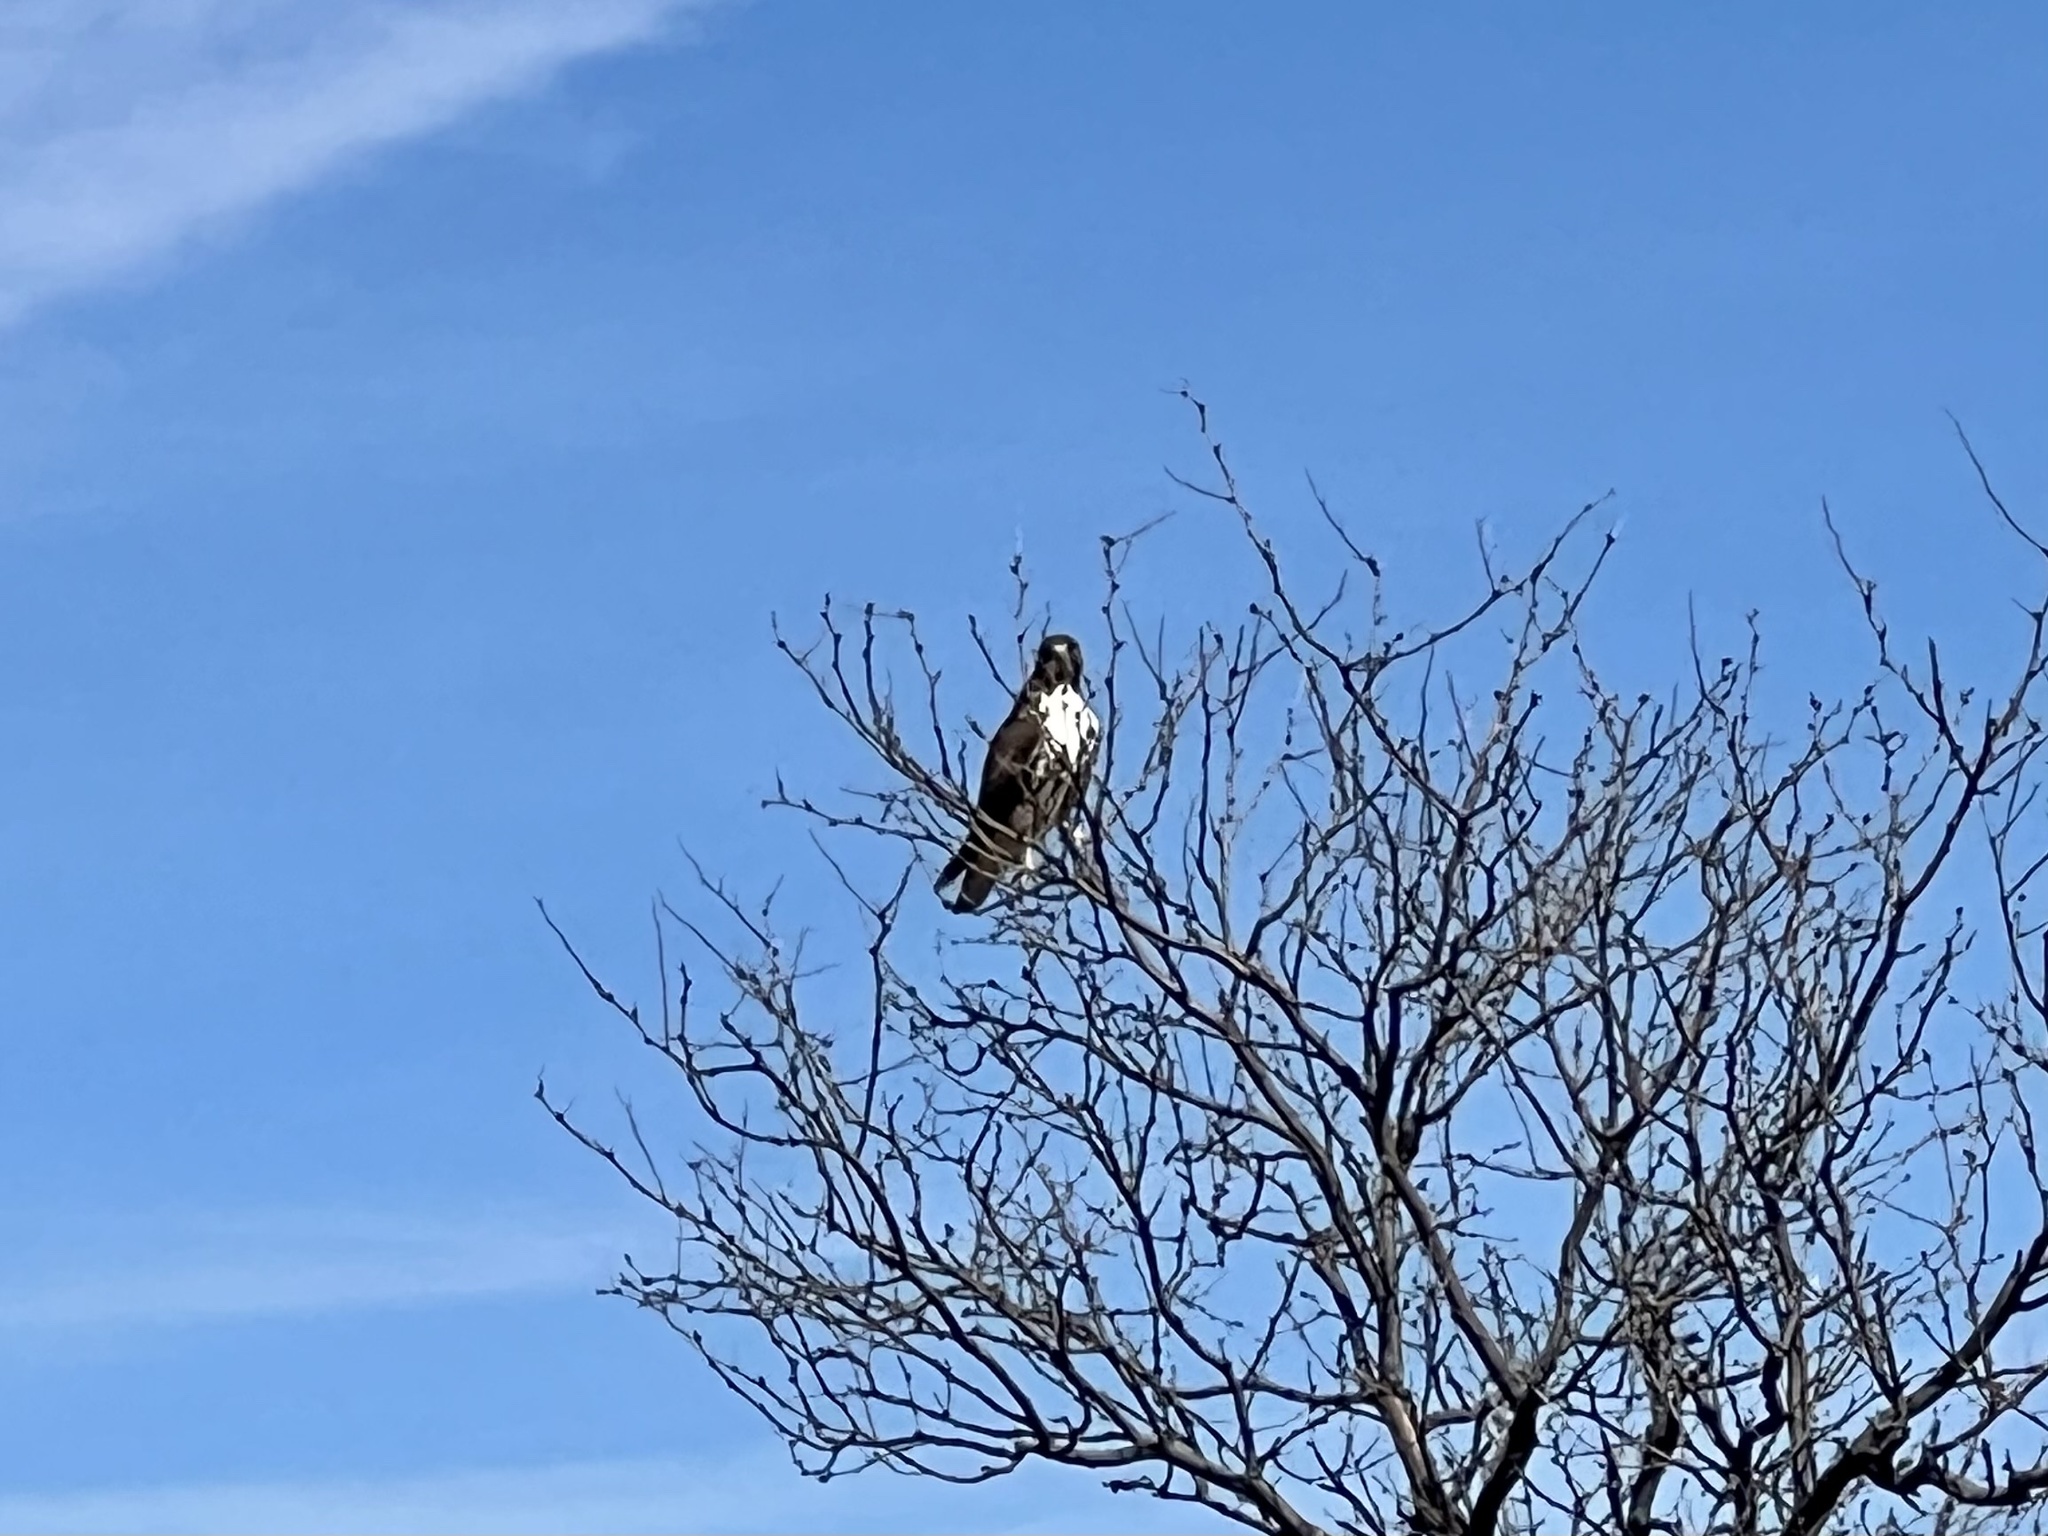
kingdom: Animalia
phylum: Chordata
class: Aves
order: Accipitriformes
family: Accipitridae
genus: Buteo
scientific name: Buteo jamaicensis
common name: Red-tailed hawk
